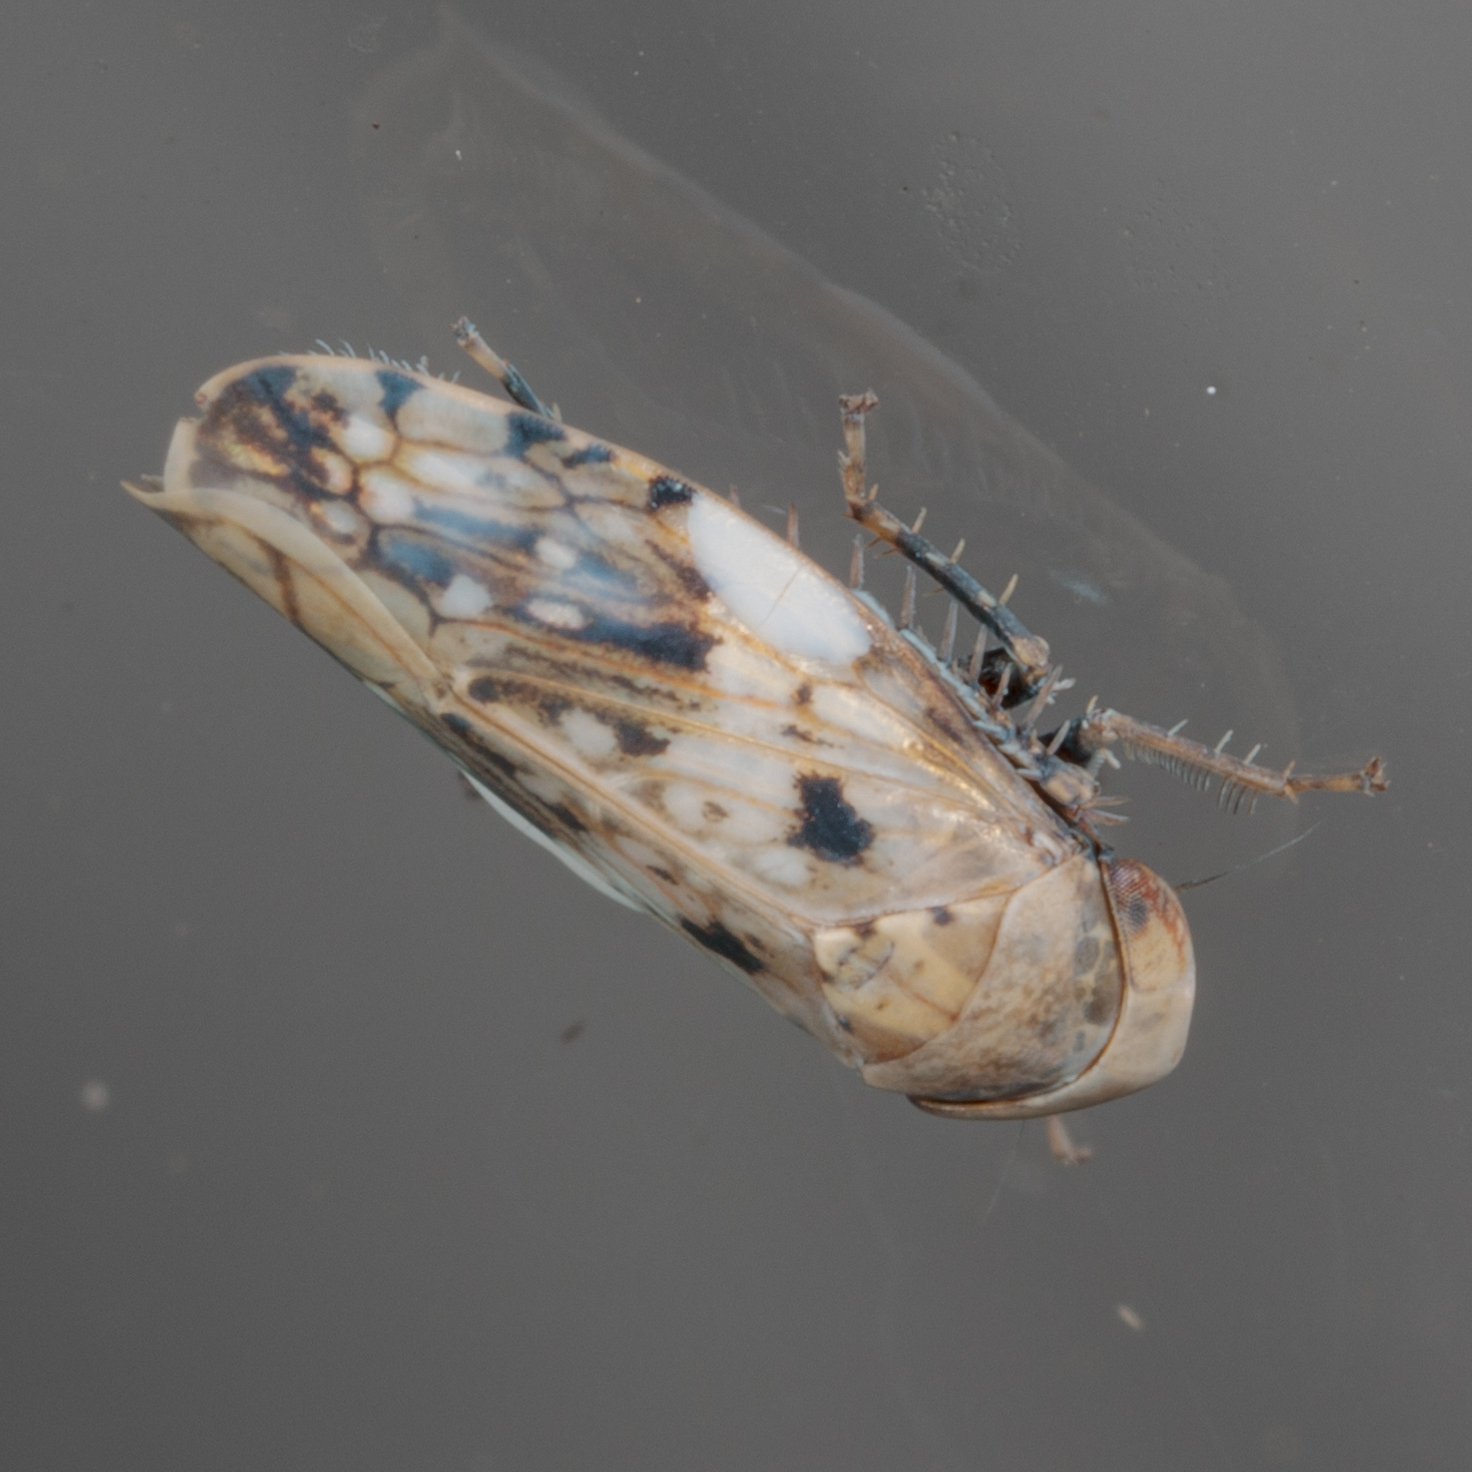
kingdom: Animalia
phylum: Arthropoda
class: Insecta
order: Hemiptera
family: Cicadellidae
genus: Menosoma
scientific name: Menosoma cinctum
